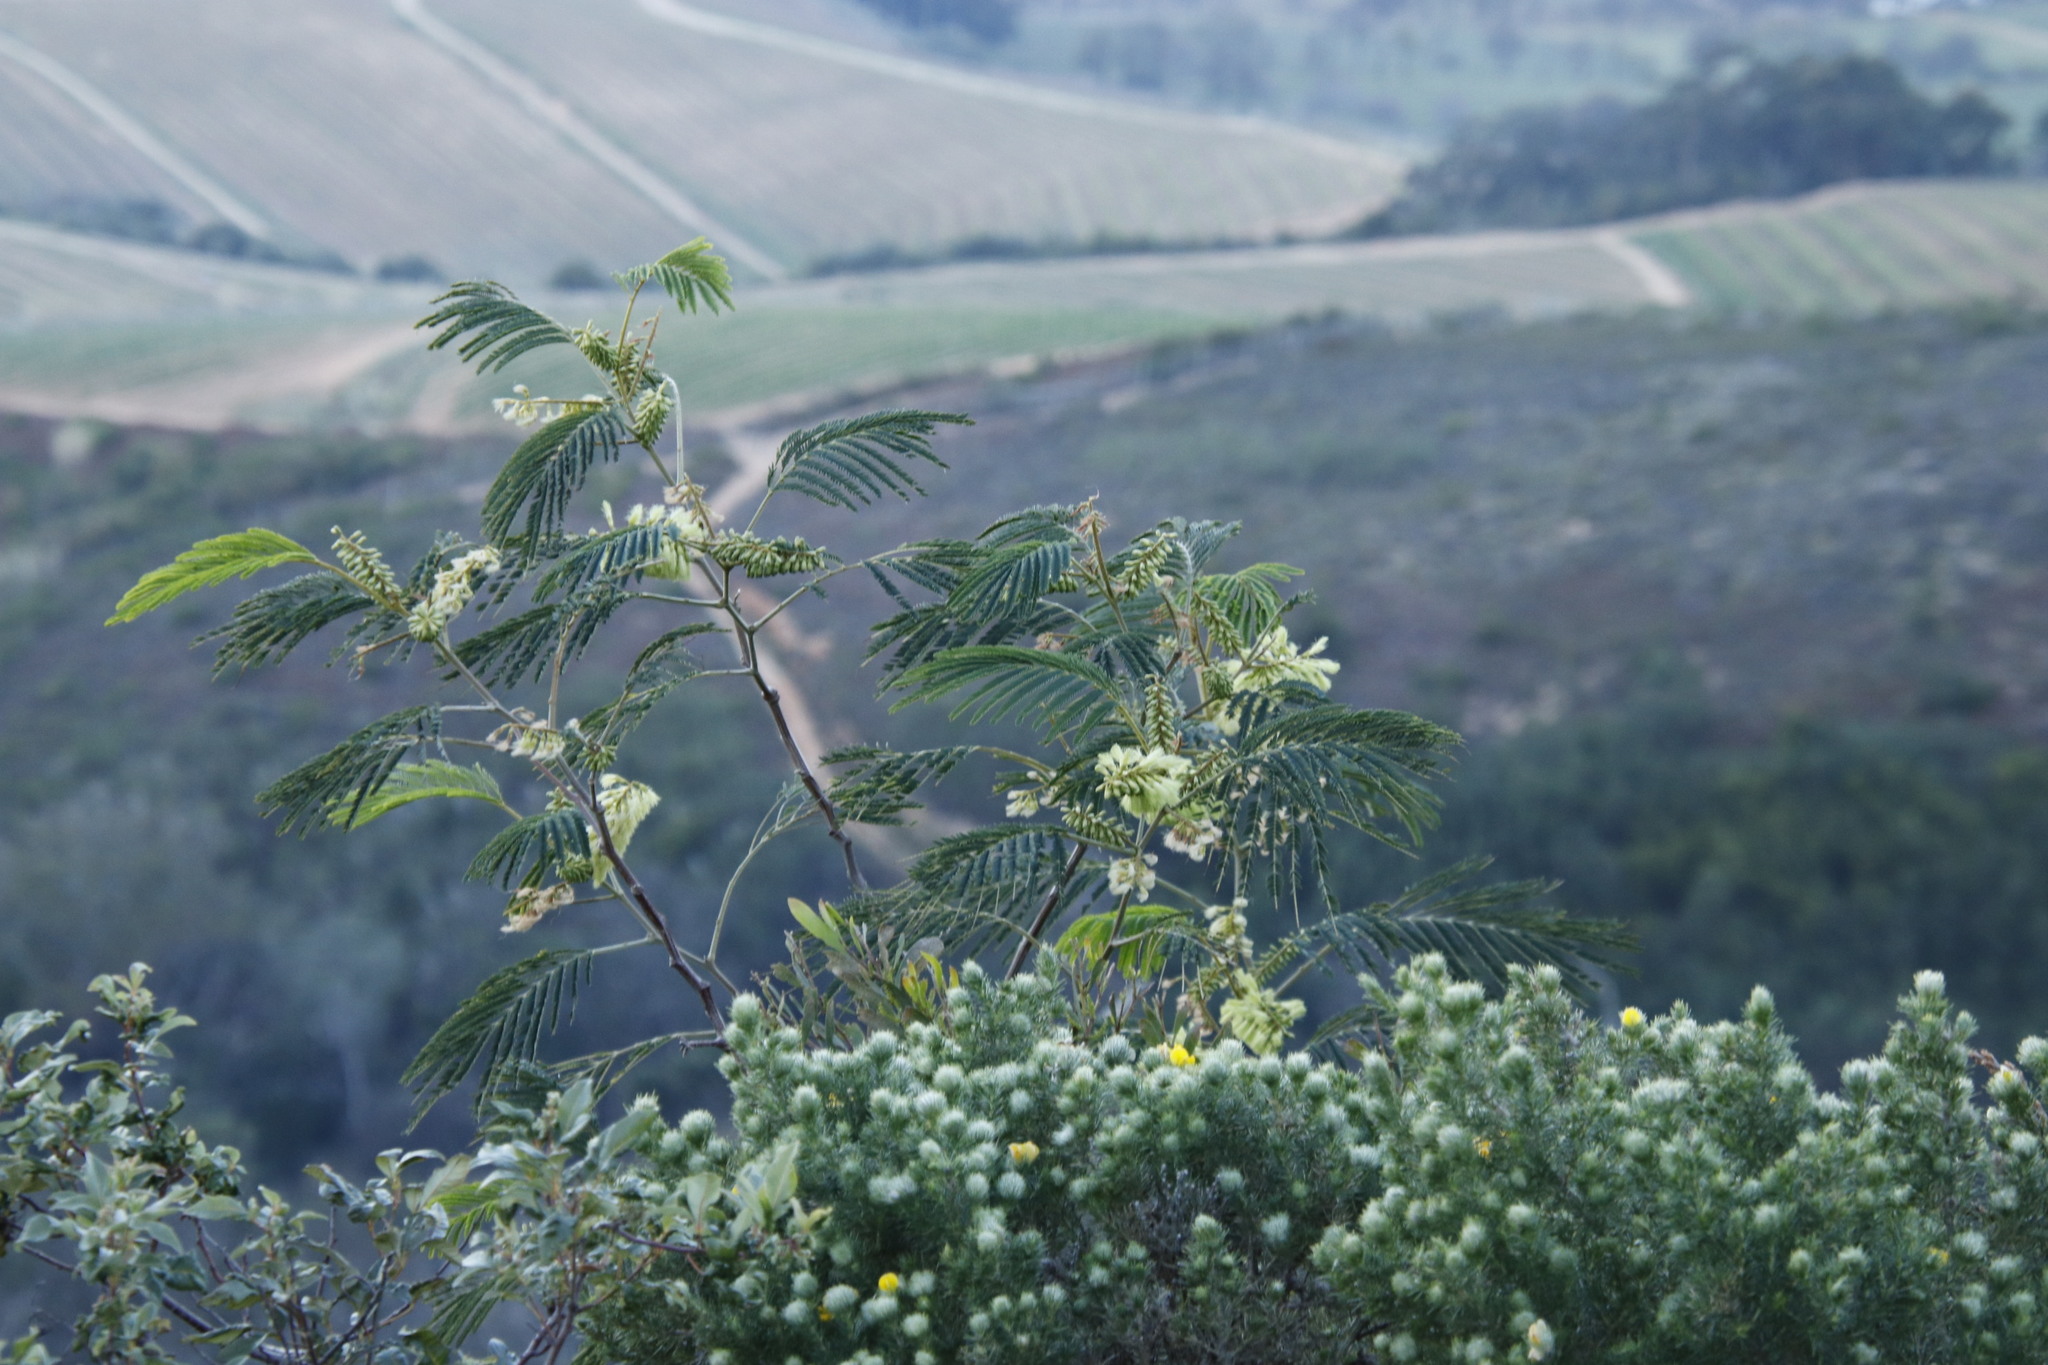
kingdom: Plantae
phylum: Tracheophyta
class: Magnoliopsida
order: Fabales
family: Fabaceae
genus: Paraserianthes
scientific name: Paraserianthes lophantha
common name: Plume albizia
